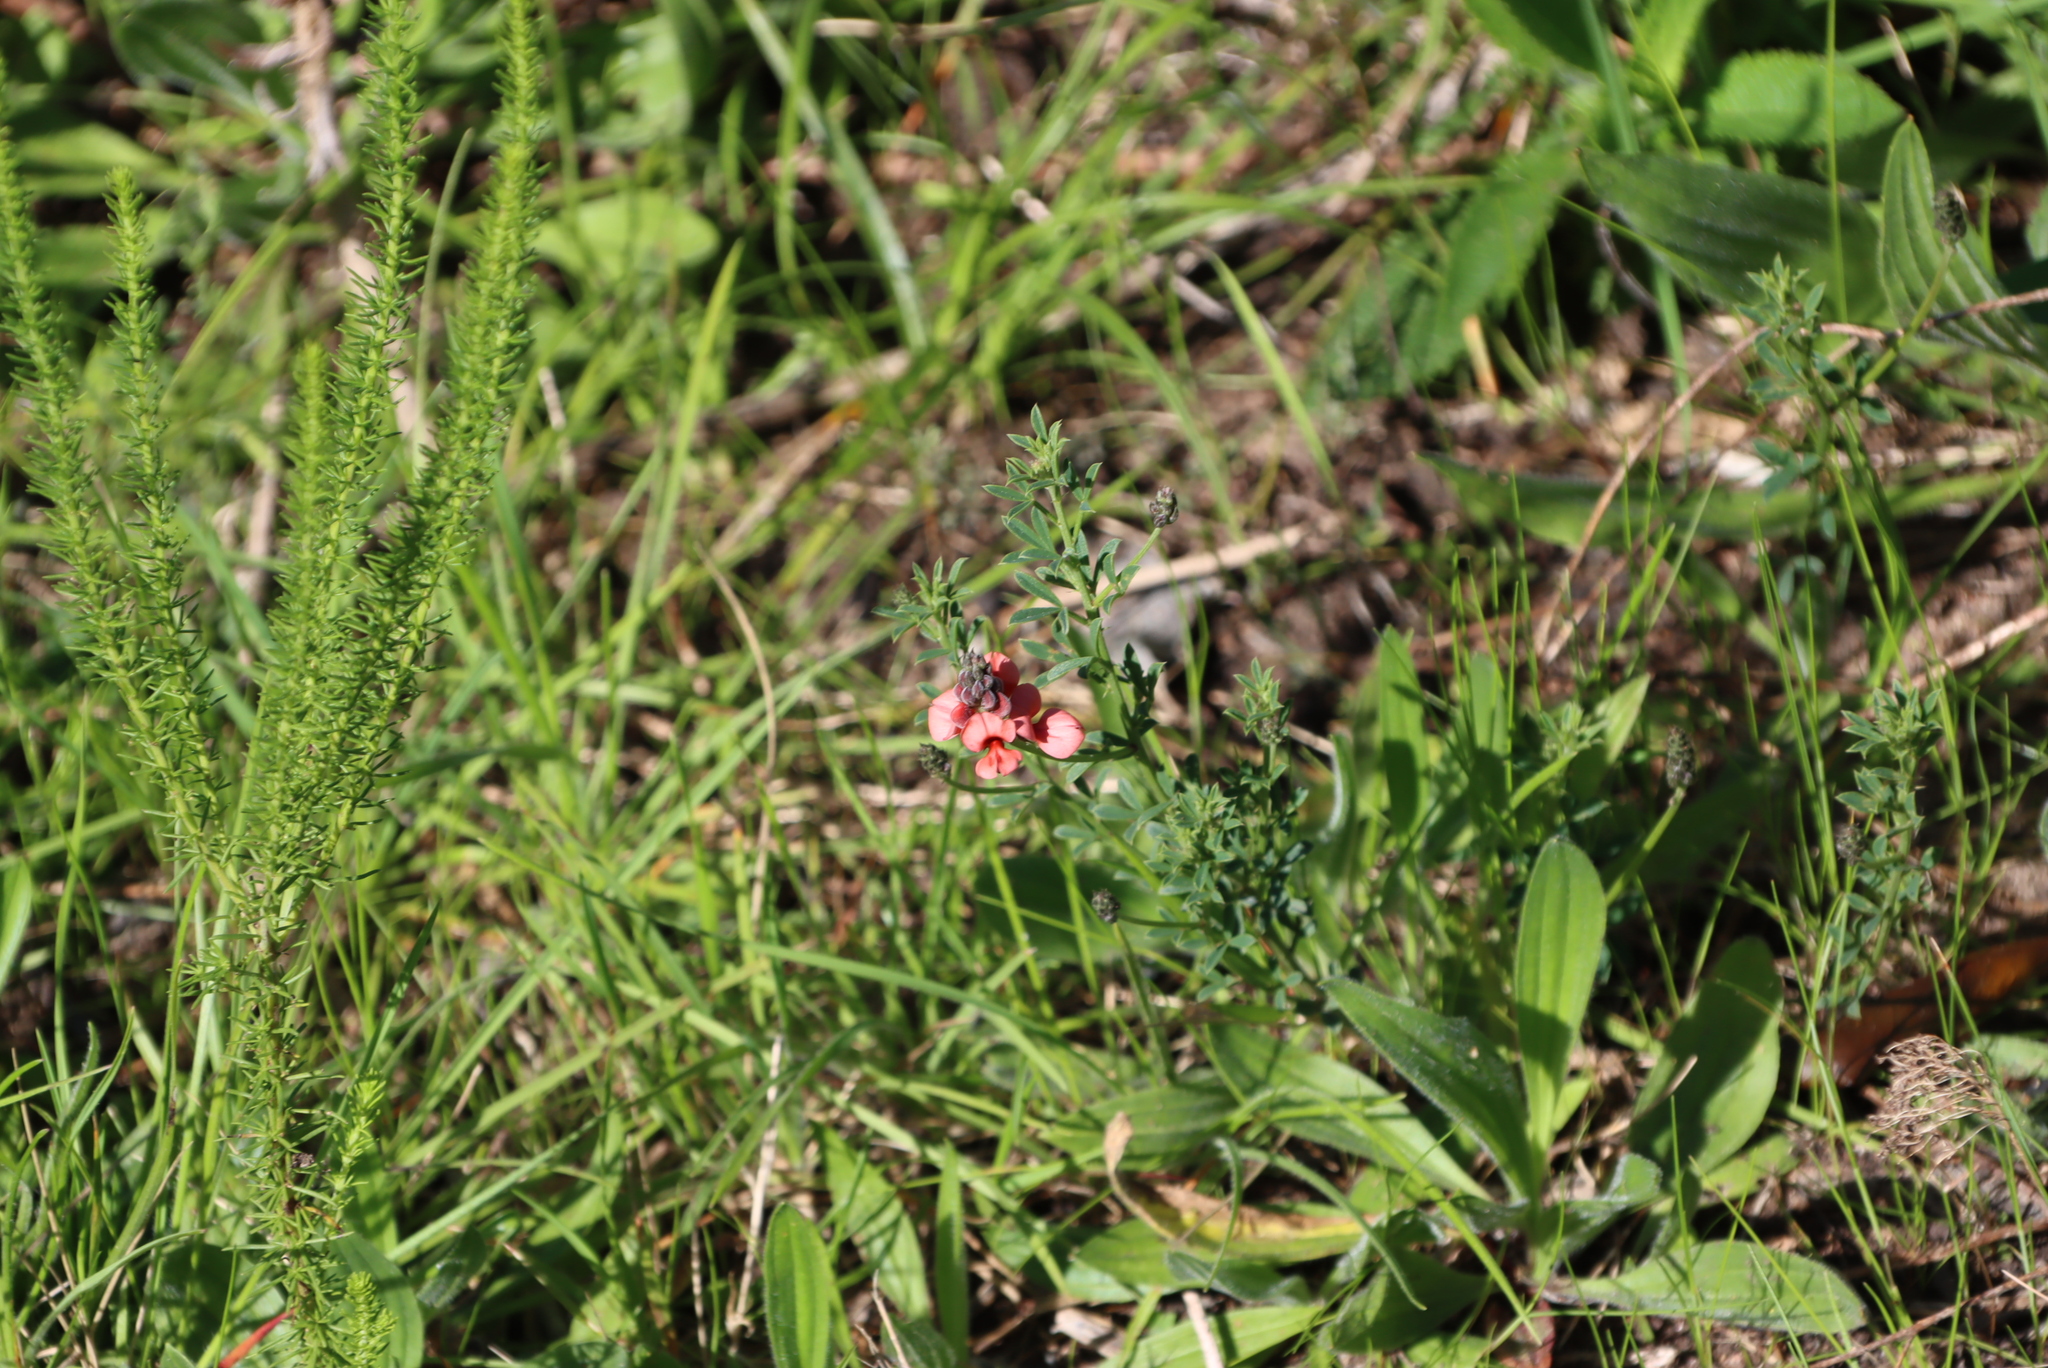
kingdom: Plantae
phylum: Tracheophyta
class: Magnoliopsida
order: Fabales
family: Fabaceae
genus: Indigofera
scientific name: Indigofera heterophylla
